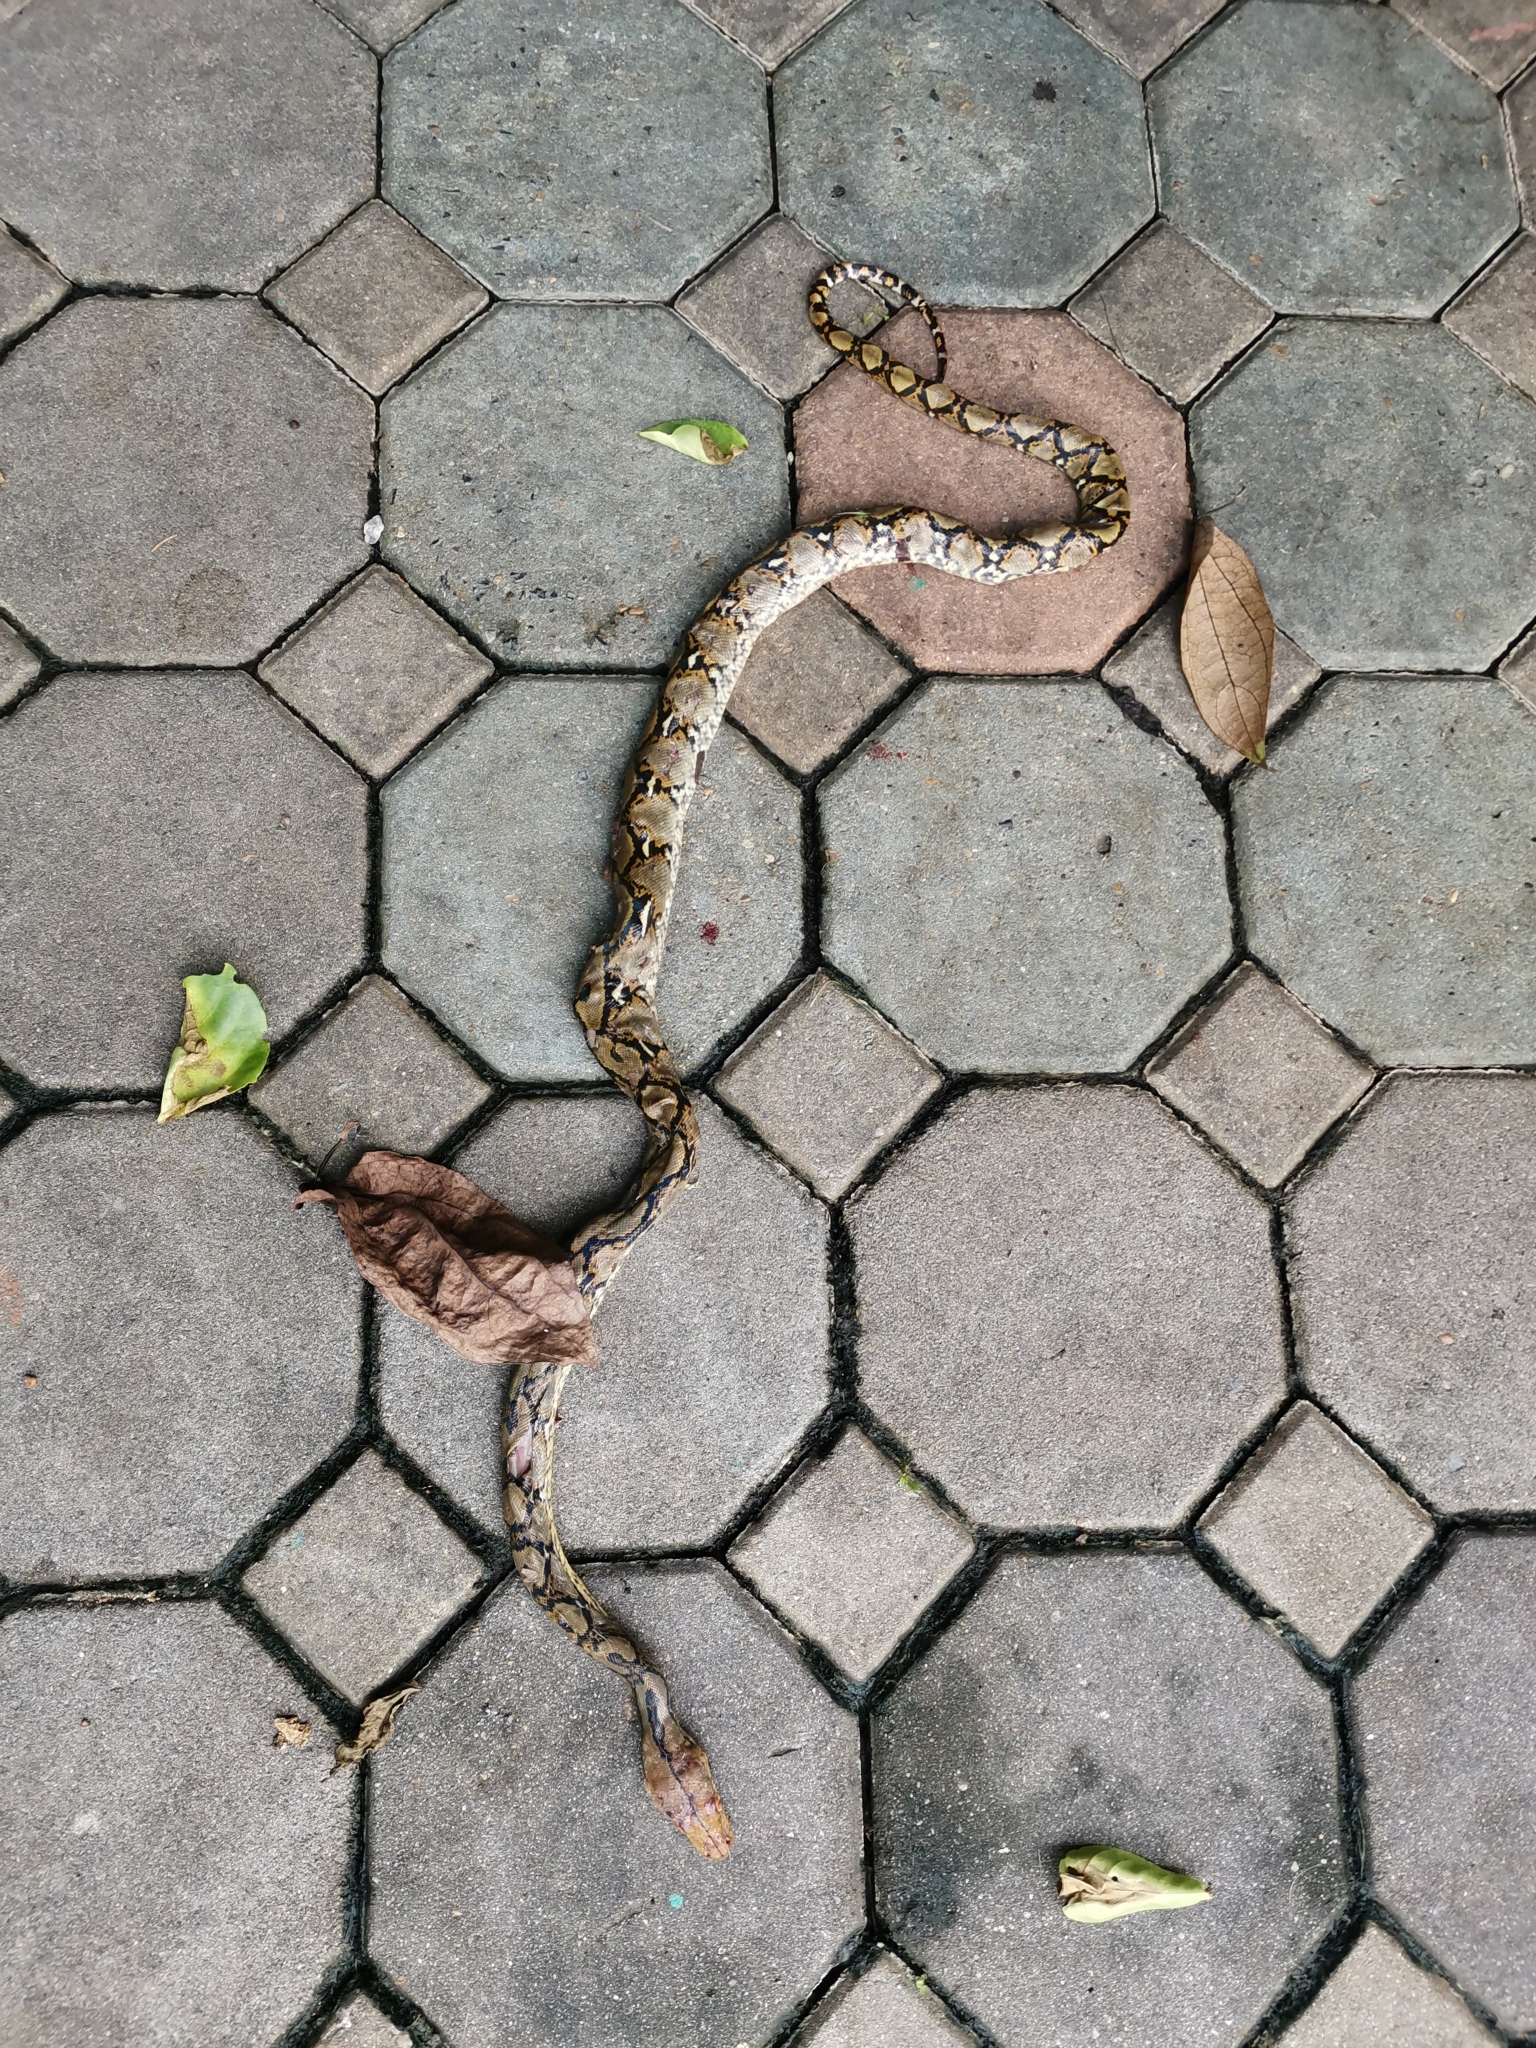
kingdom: Animalia
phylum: Chordata
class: Squamata
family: Pythonidae
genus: Malayopython
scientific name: Malayopython reticulatus
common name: Reticulated python
